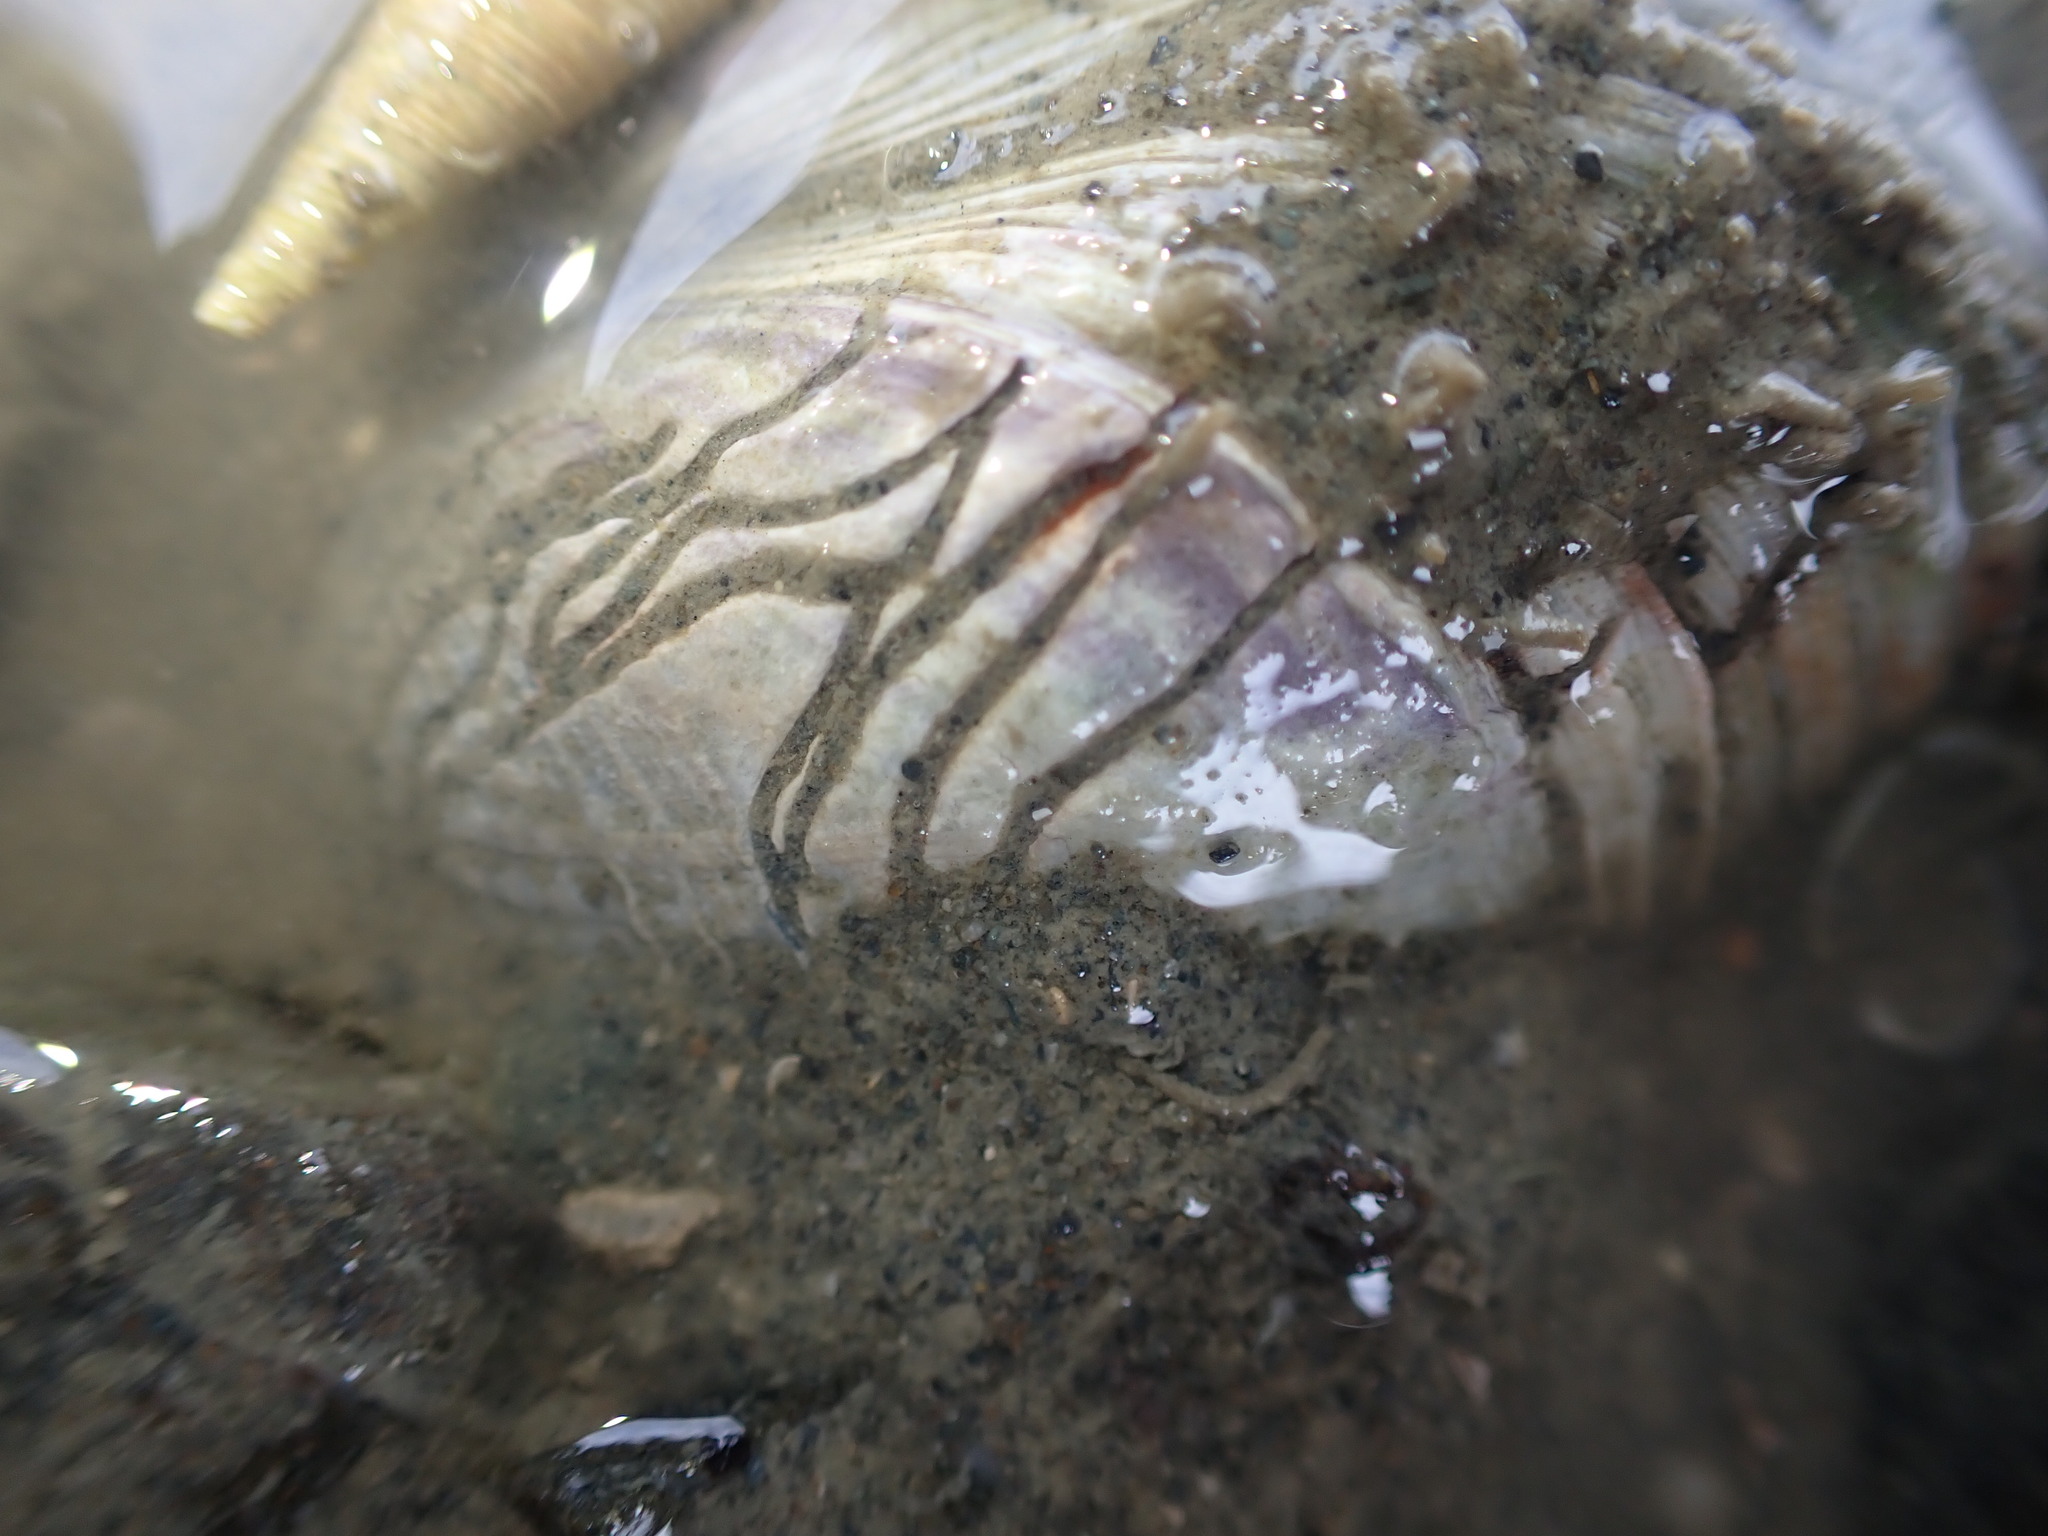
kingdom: Animalia
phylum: Mollusca
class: Bivalvia
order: Venerida
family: Veneridae
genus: Austrovenus
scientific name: Austrovenus stutchburyi
